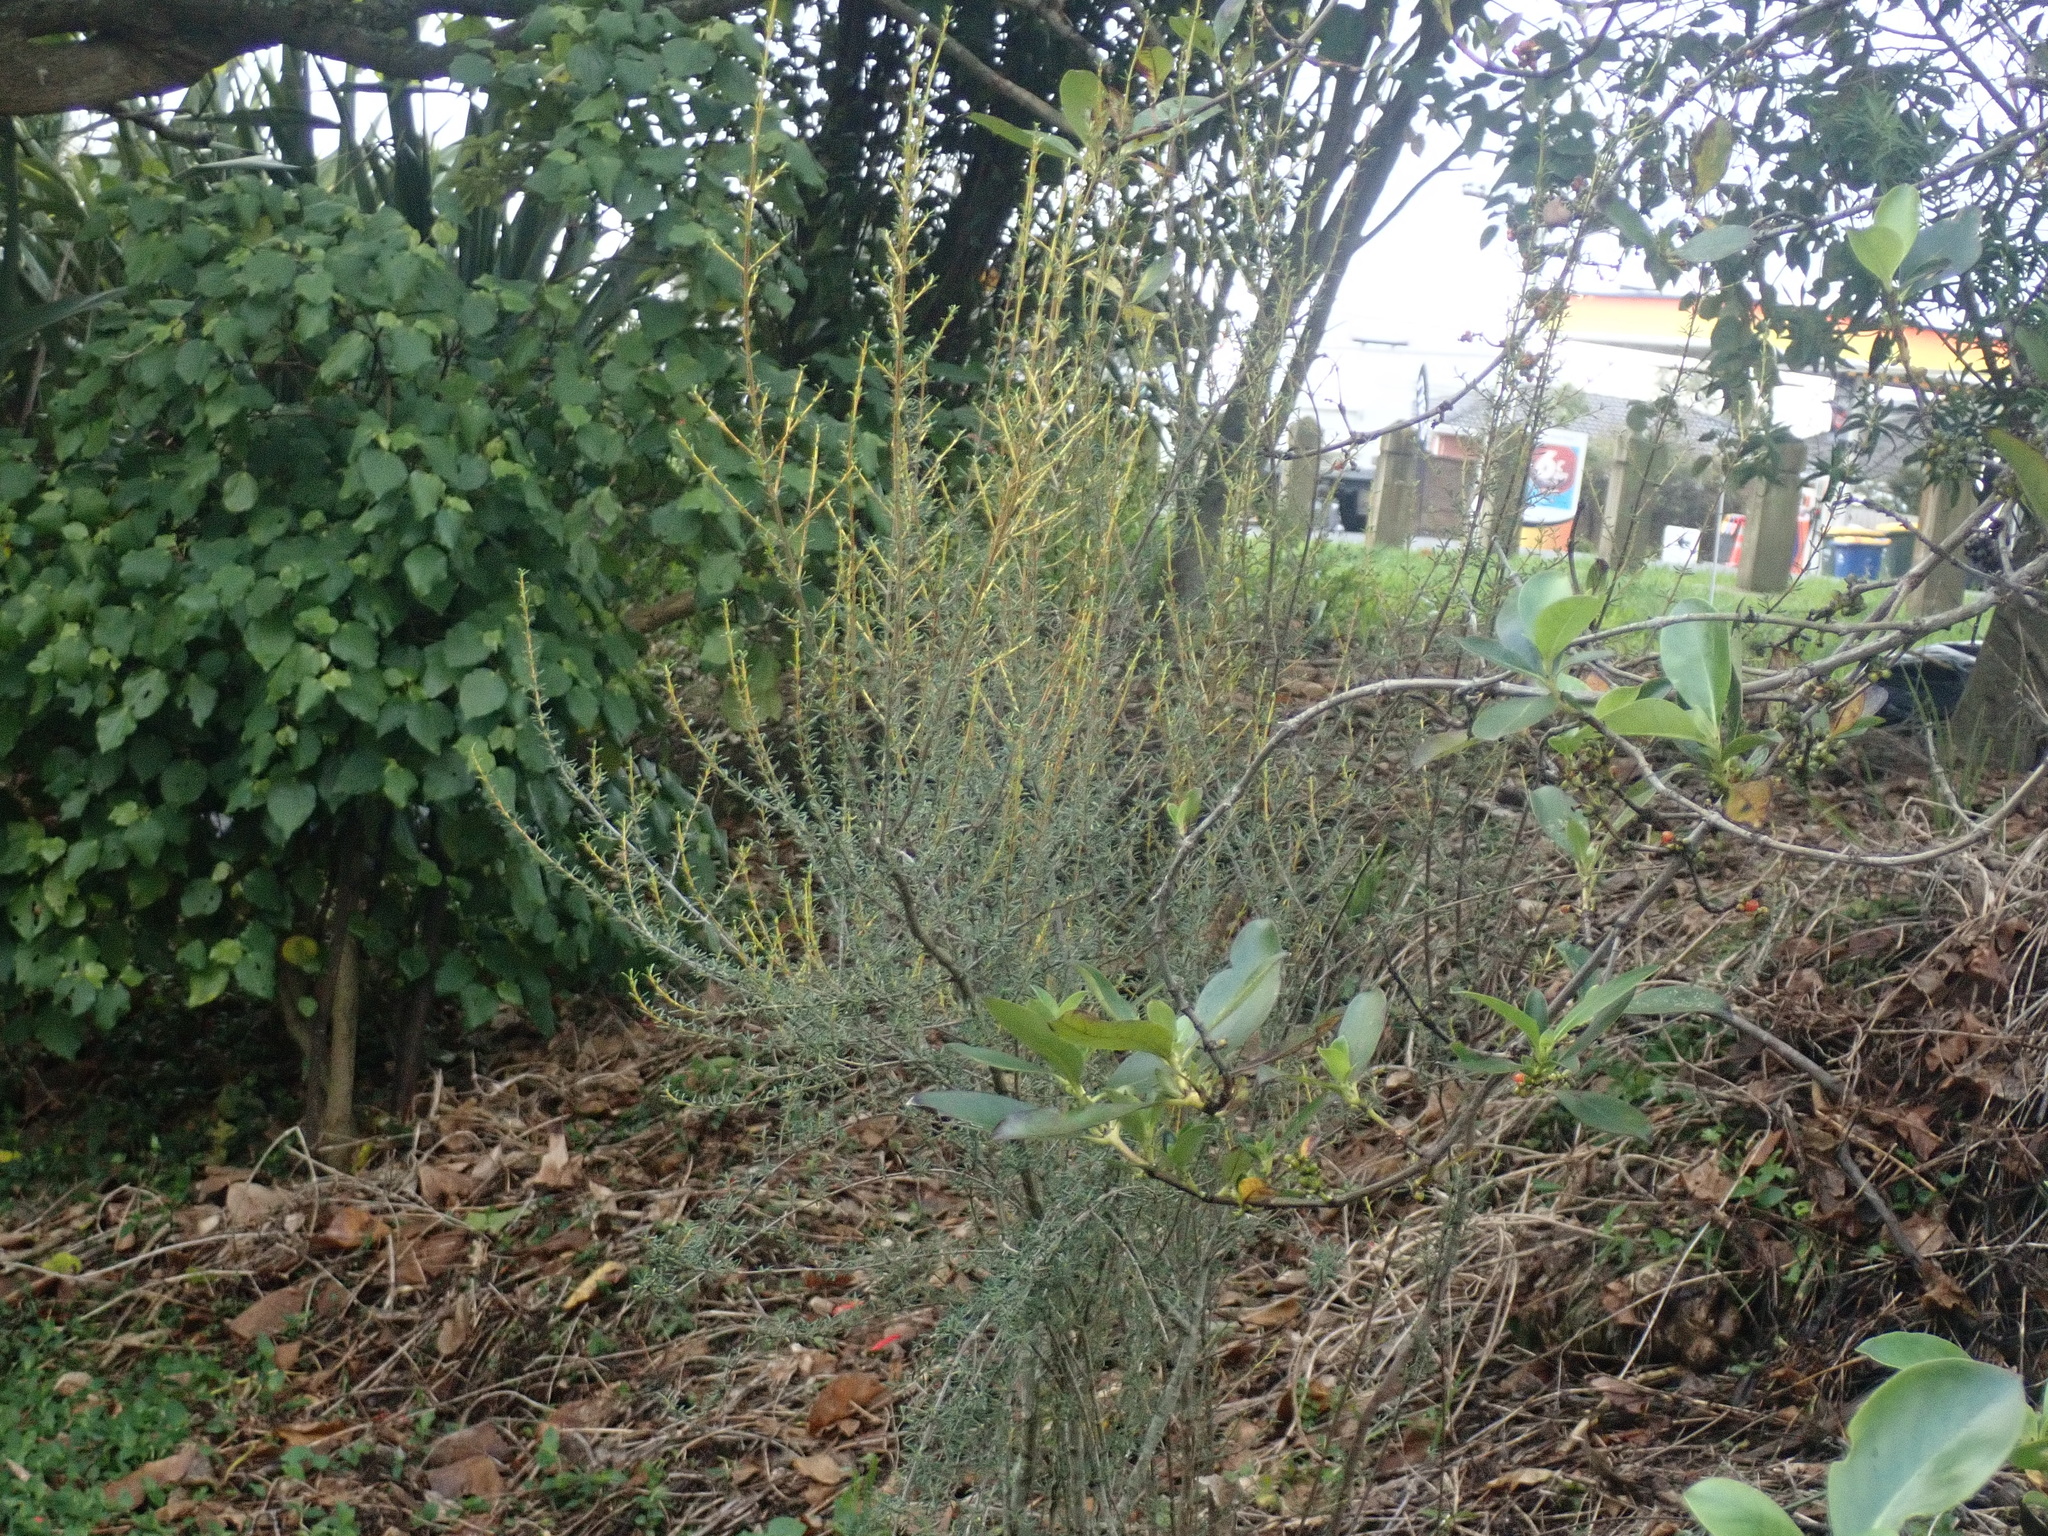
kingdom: Plantae
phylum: Tracheophyta
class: Magnoliopsida
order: Asterales
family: Asteraceae
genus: Olearia
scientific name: Olearia solandri
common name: Coastal daisybush
